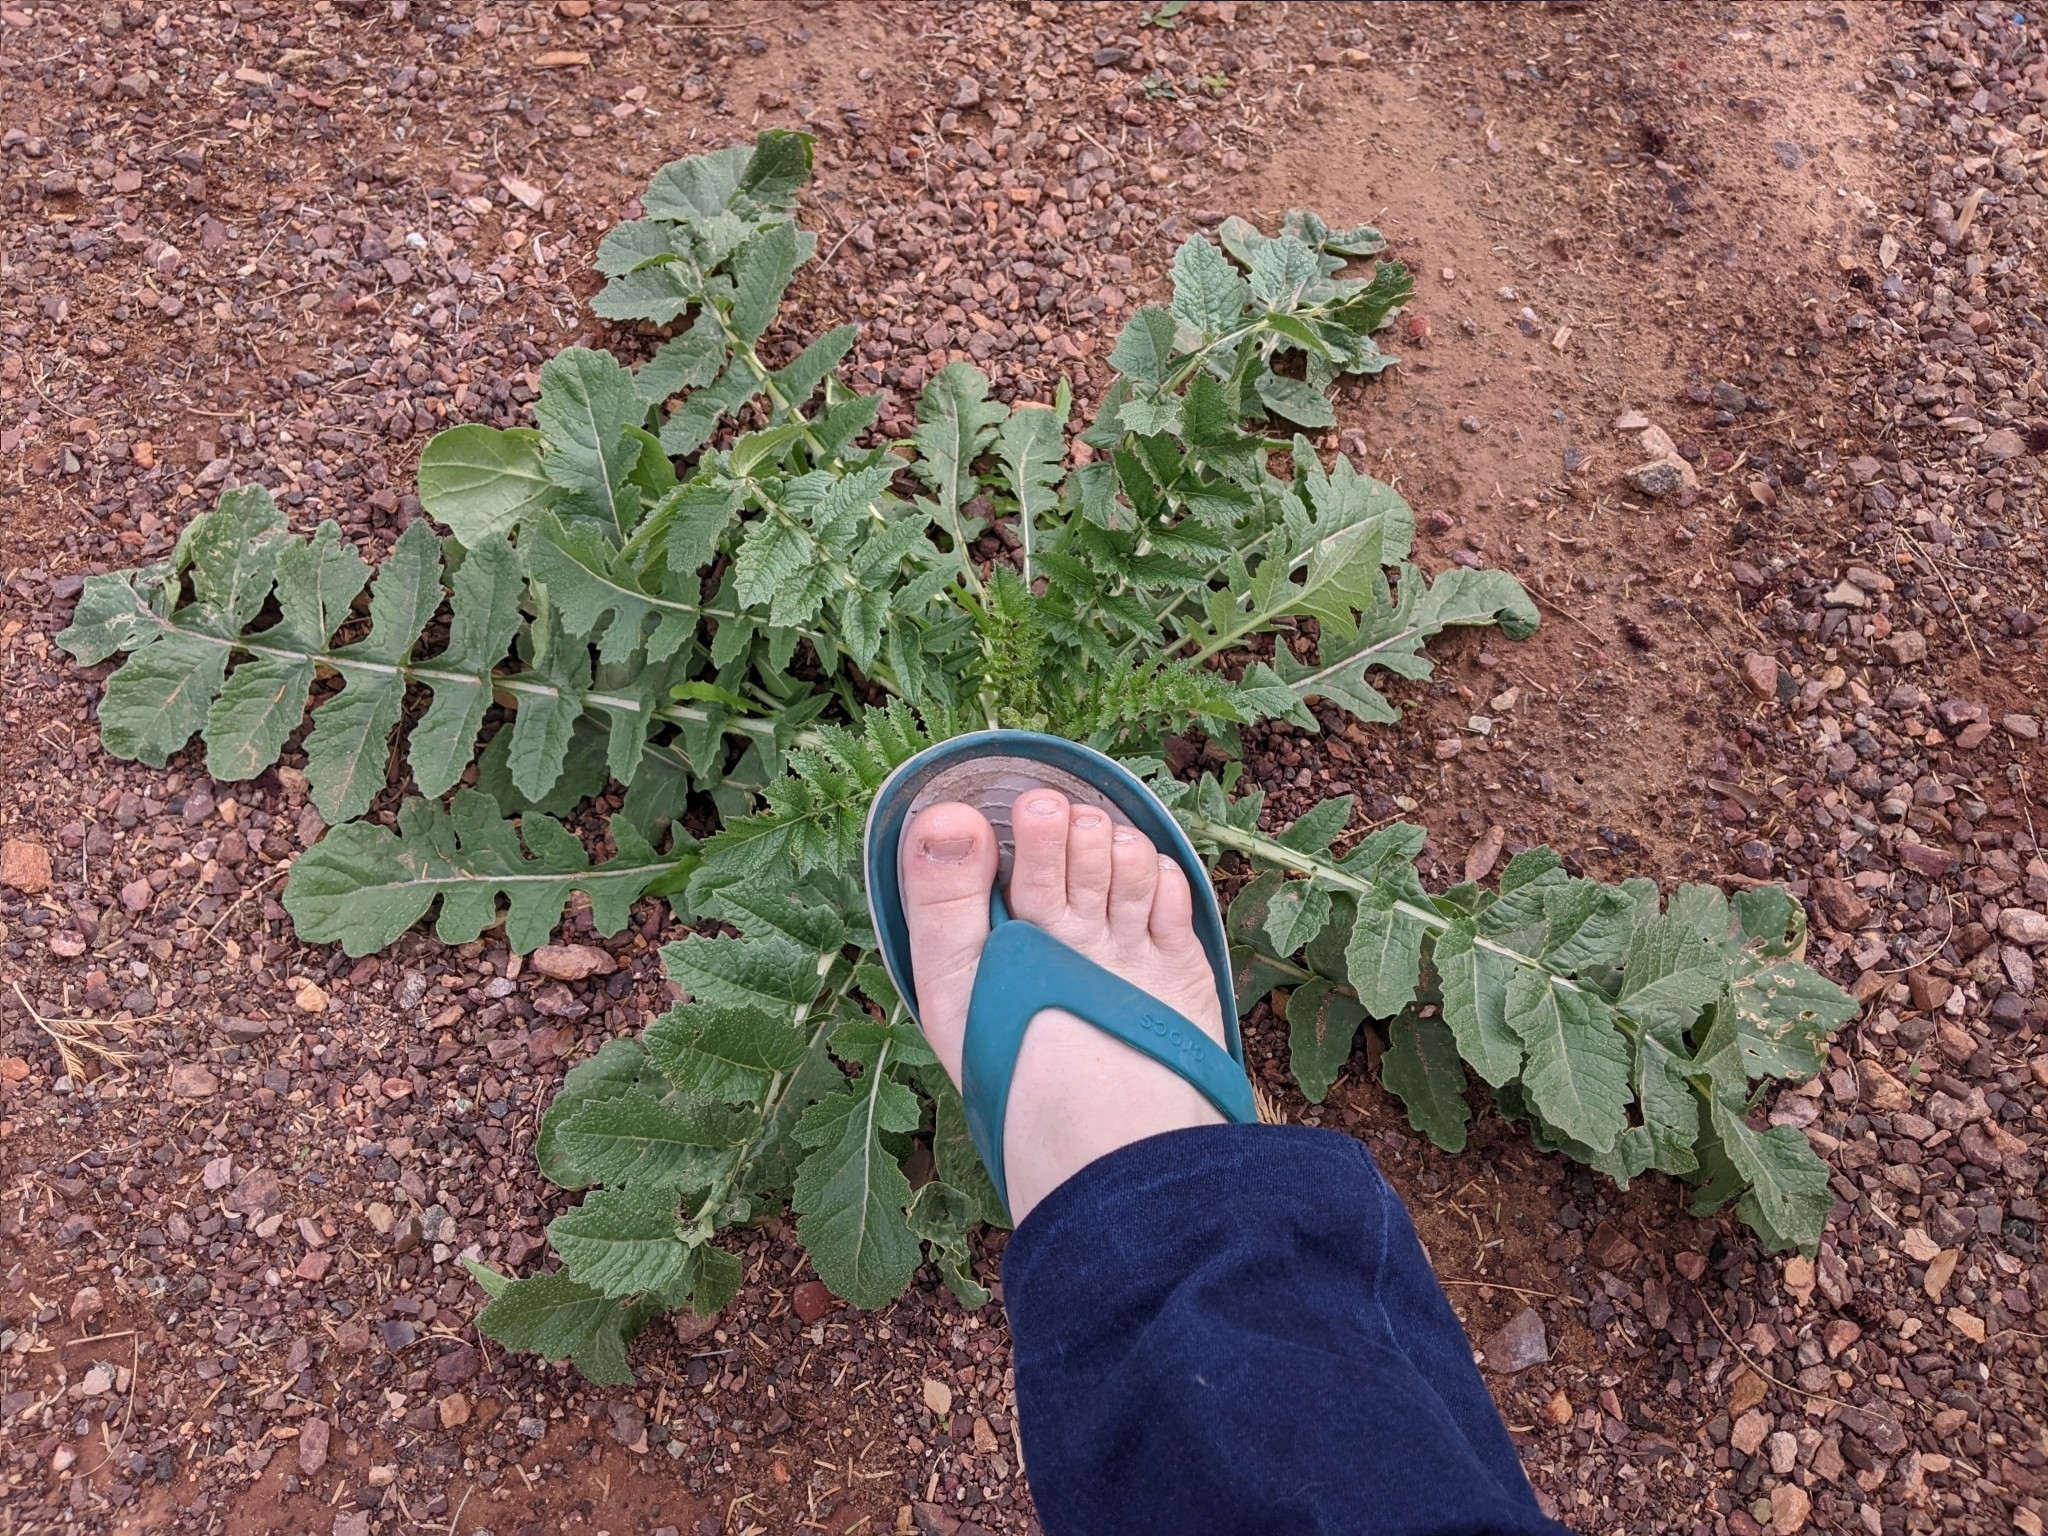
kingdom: Plantae
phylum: Tracheophyta
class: Magnoliopsida
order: Brassicales
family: Brassicaceae
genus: Brassica
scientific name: Brassica tournefortii
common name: Pale cabbage
